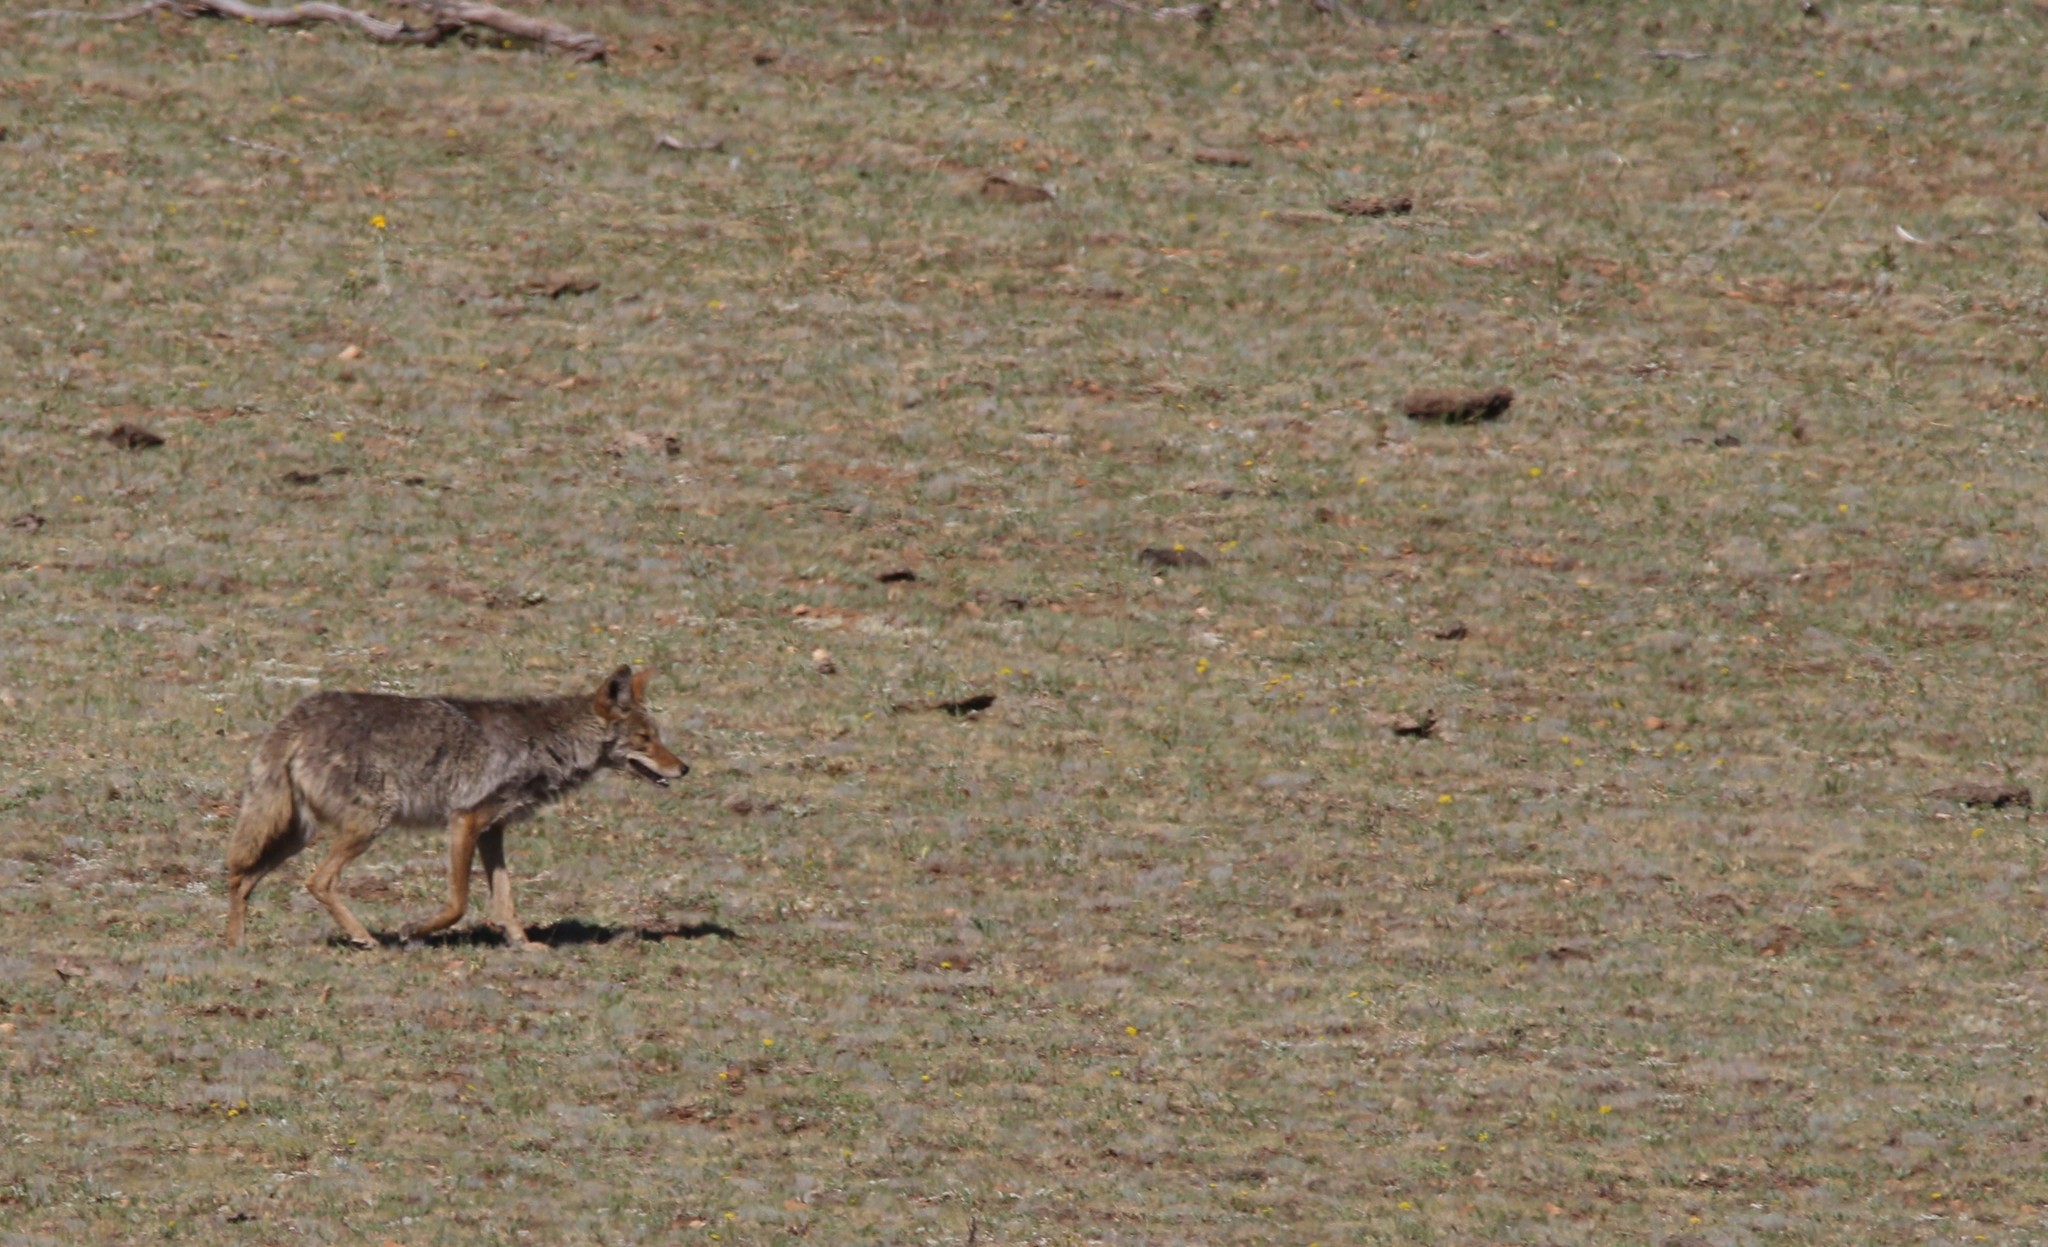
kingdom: Animalia
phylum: Chordata
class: Mammalia
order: Carnivora
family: Canidae
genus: Canis
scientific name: Canis latrans
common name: Coyote
